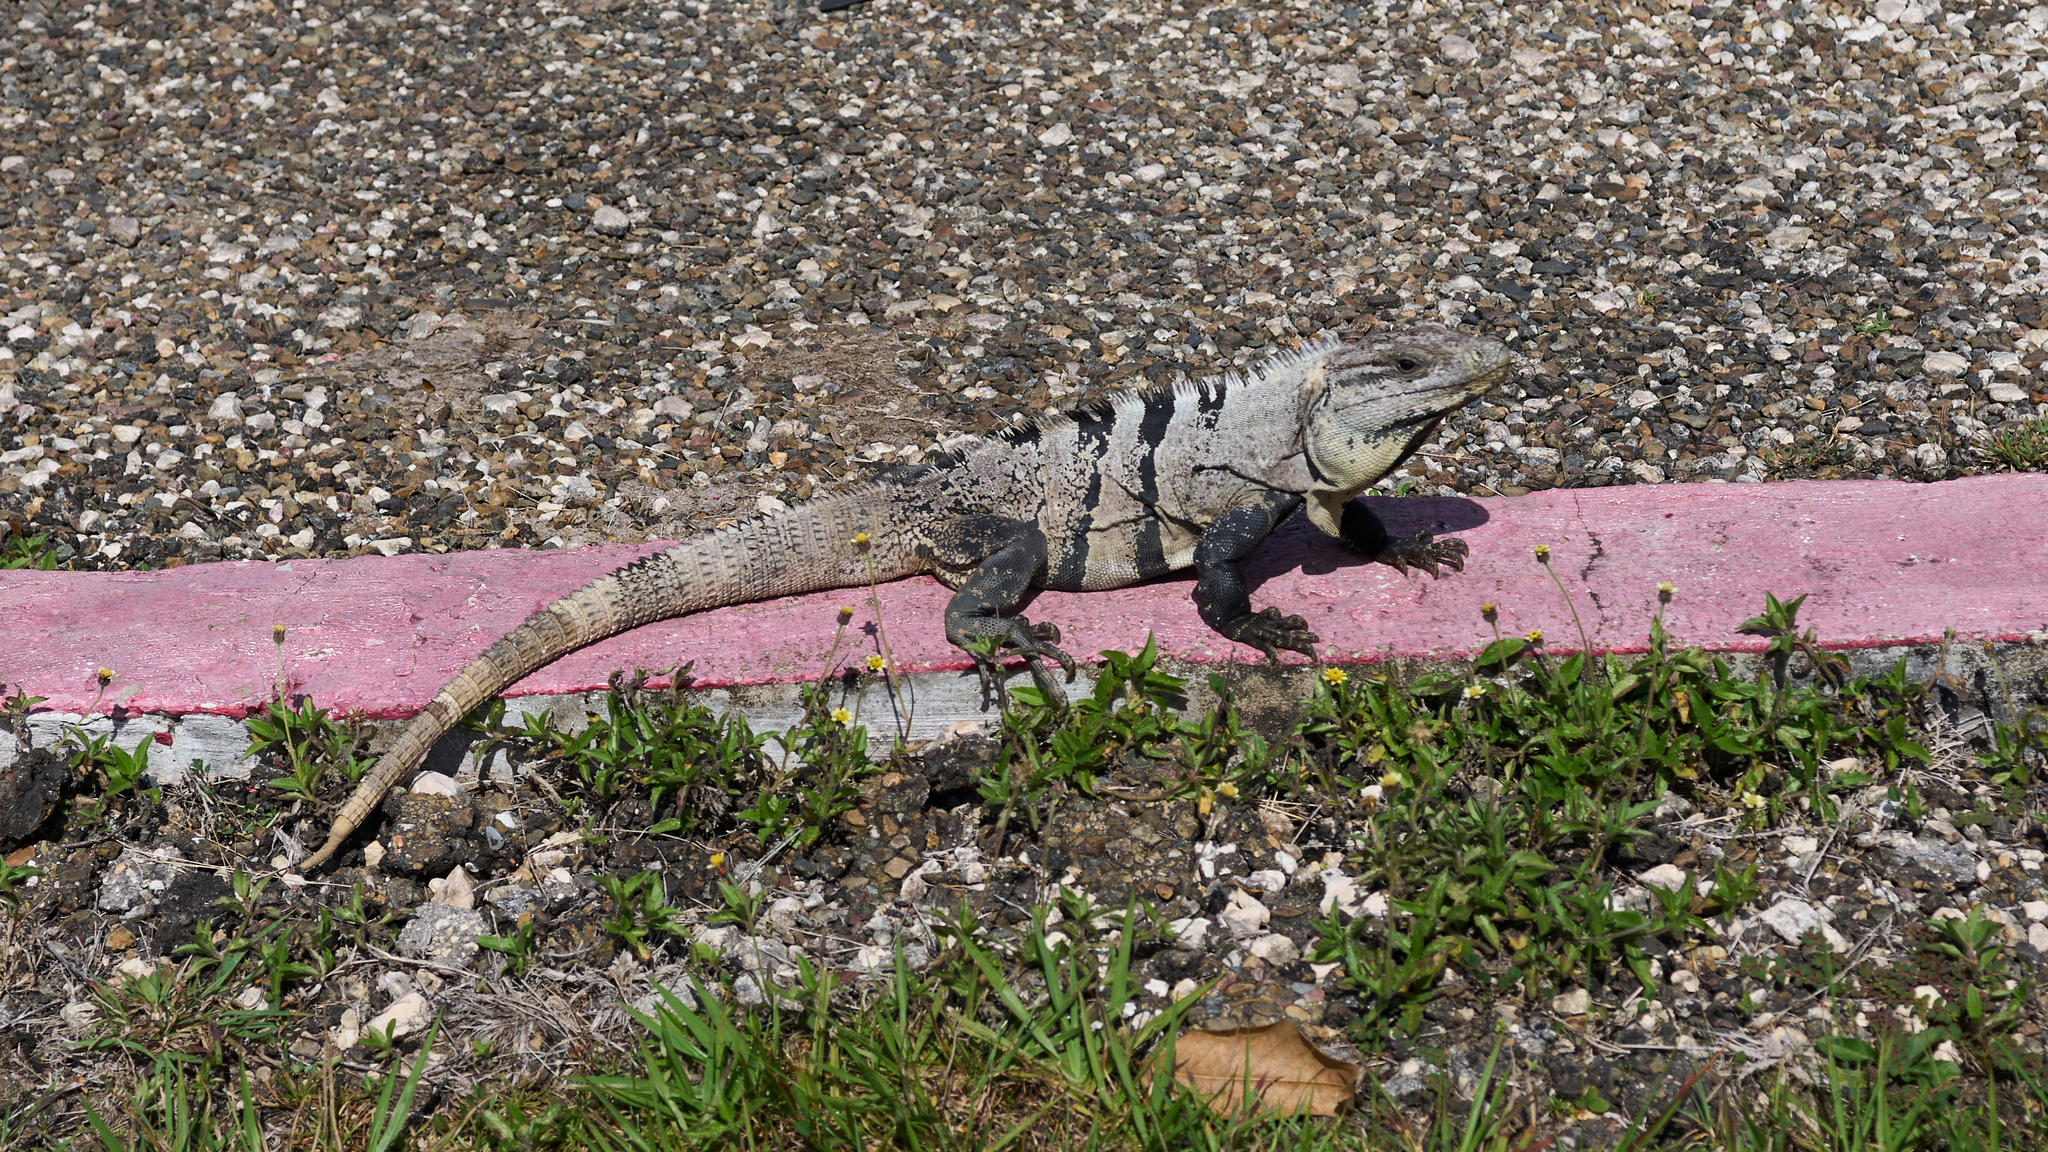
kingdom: Animalia
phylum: Chordata
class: Squamata
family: Iguanidae
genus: Ctenosaura
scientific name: Ctenosaura similis
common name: Black spiny-tailed iguana
